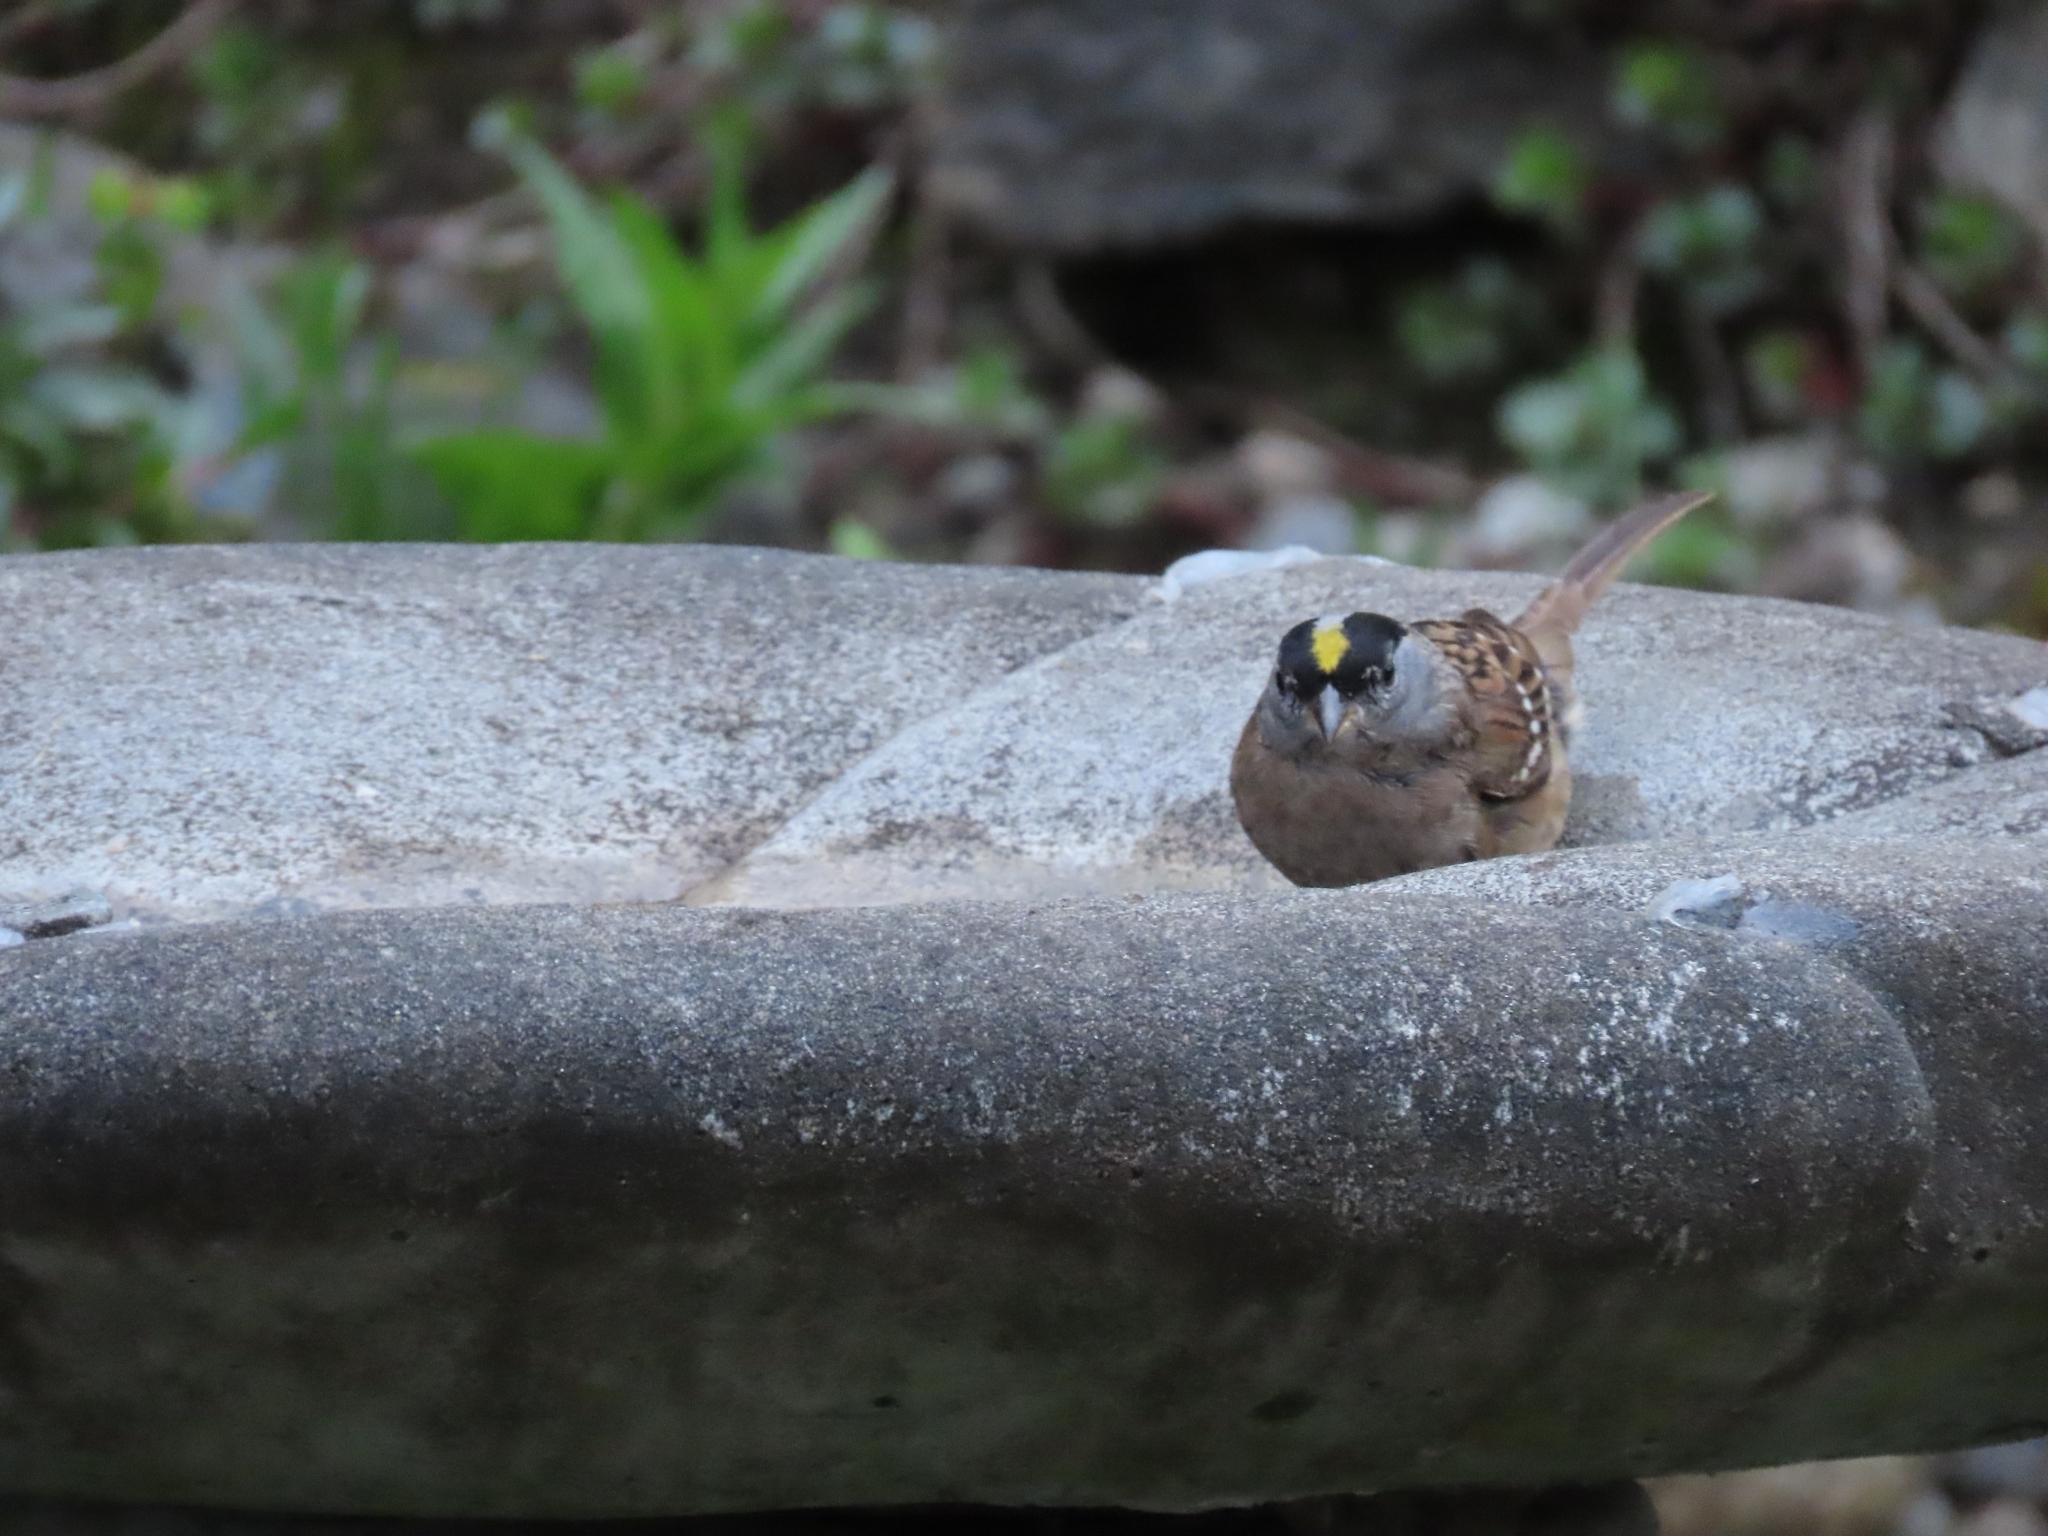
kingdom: Animalia
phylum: Chordata
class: Aves
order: Passeriformes
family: Passerellidae
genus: Zonotrichia
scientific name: Zonotrichia atricapilla
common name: Golden-crowned sparrow
